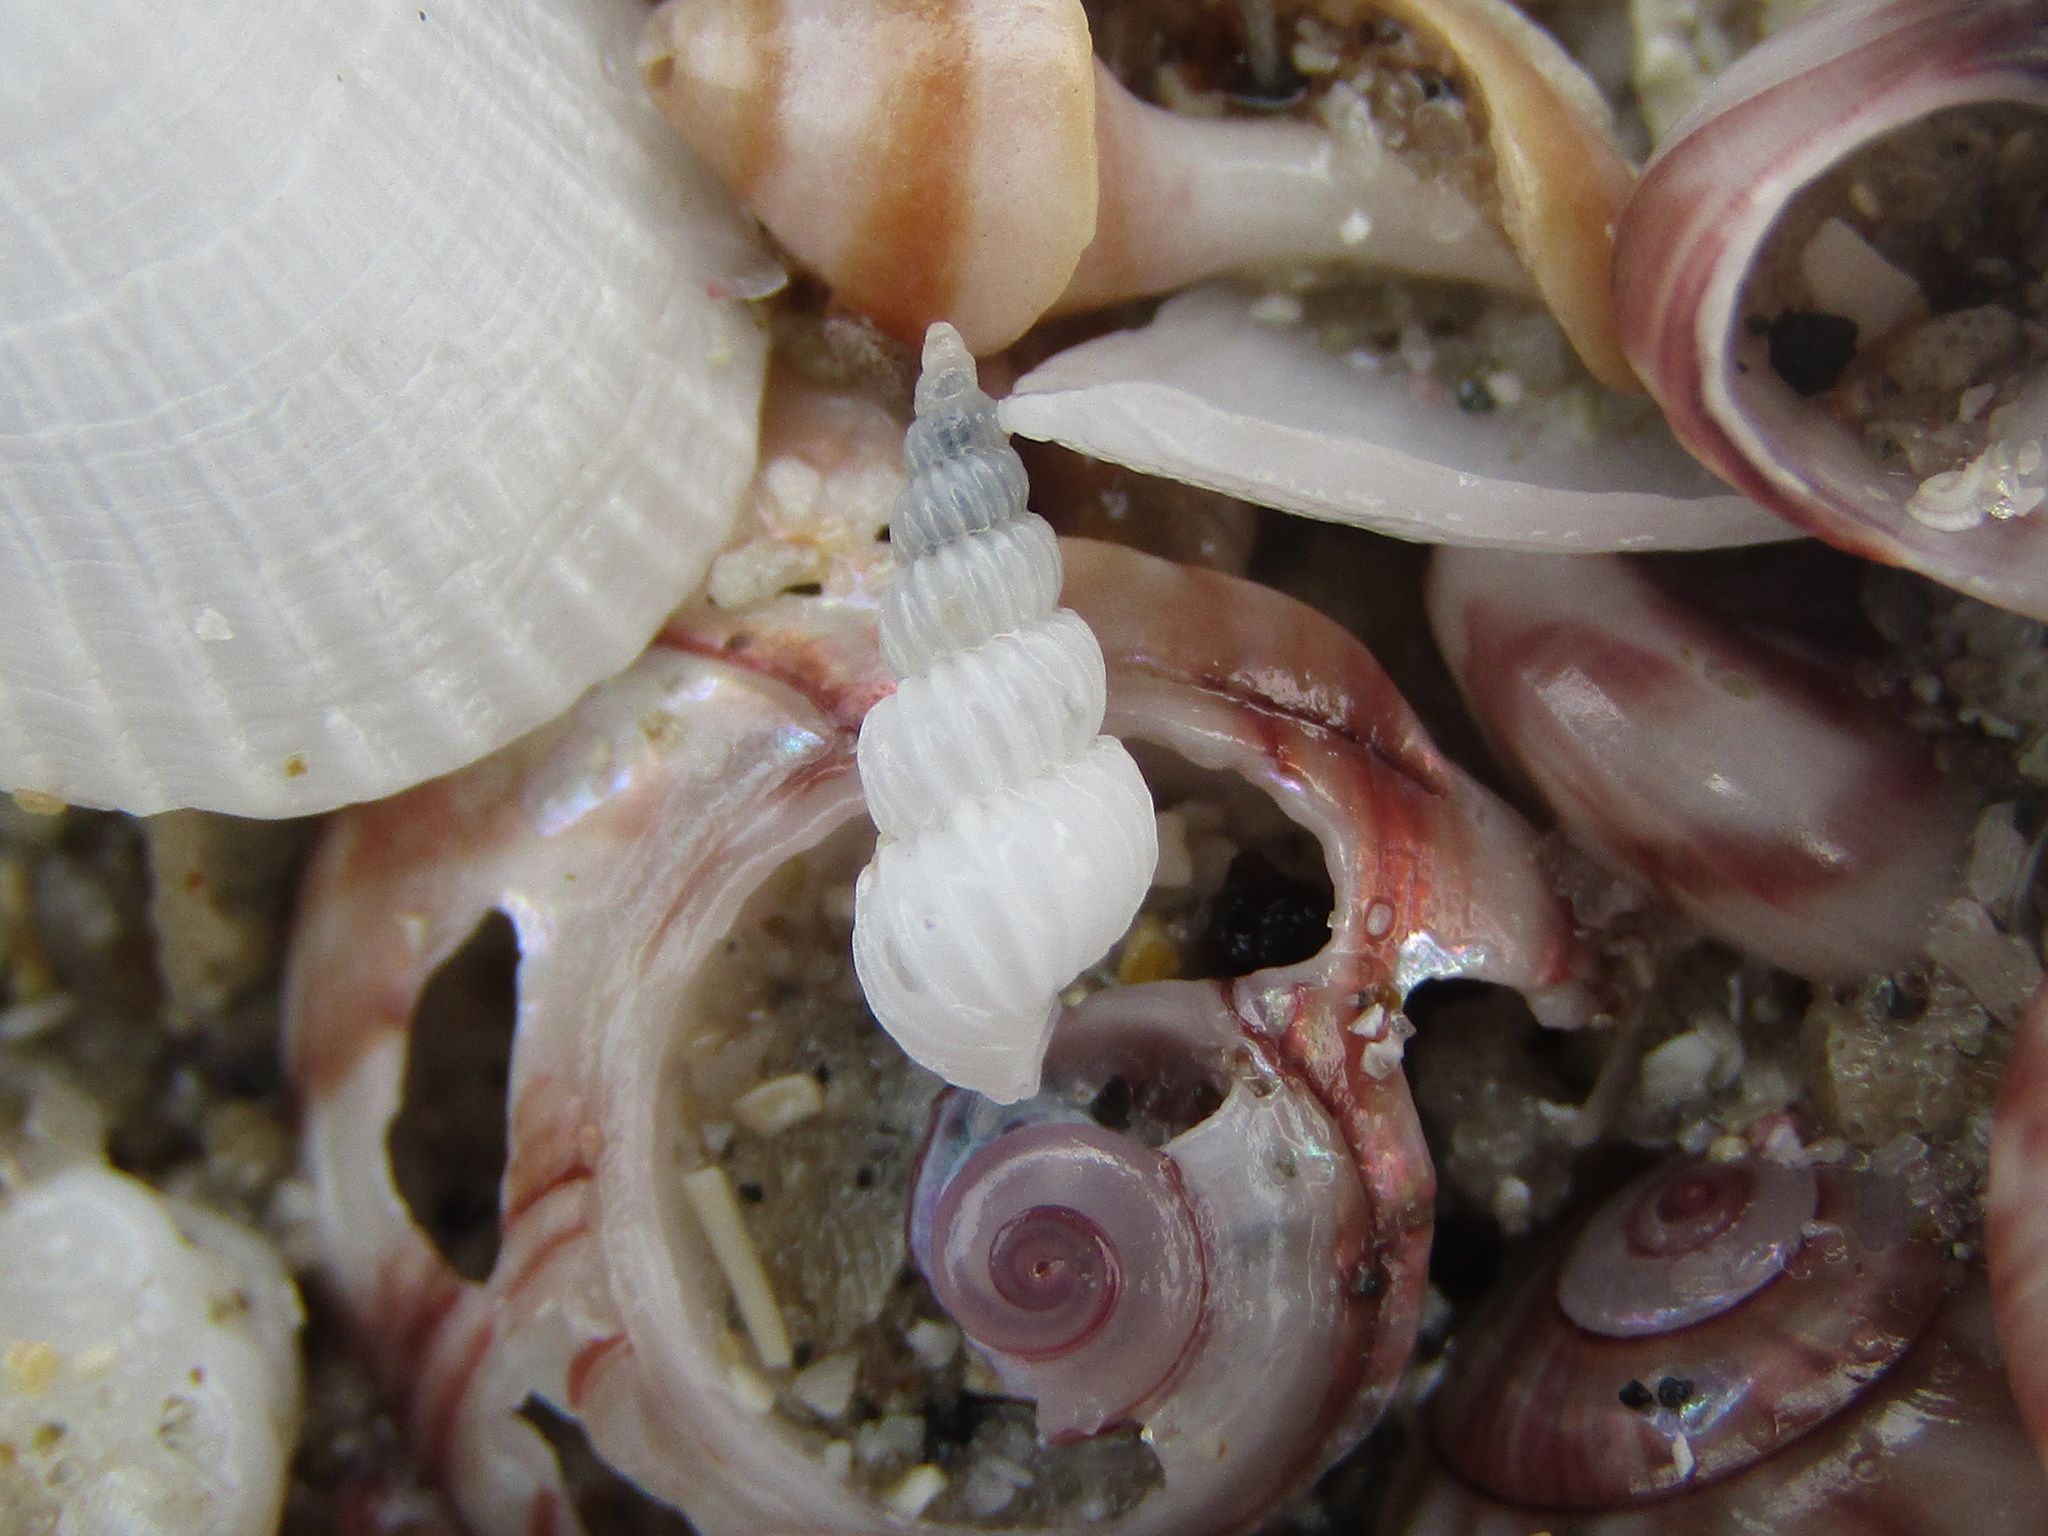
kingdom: Animalia
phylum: Mollusca
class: Gastropoda
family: Epitoniidae
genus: Epitonium
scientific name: Epitonium jukesianum
